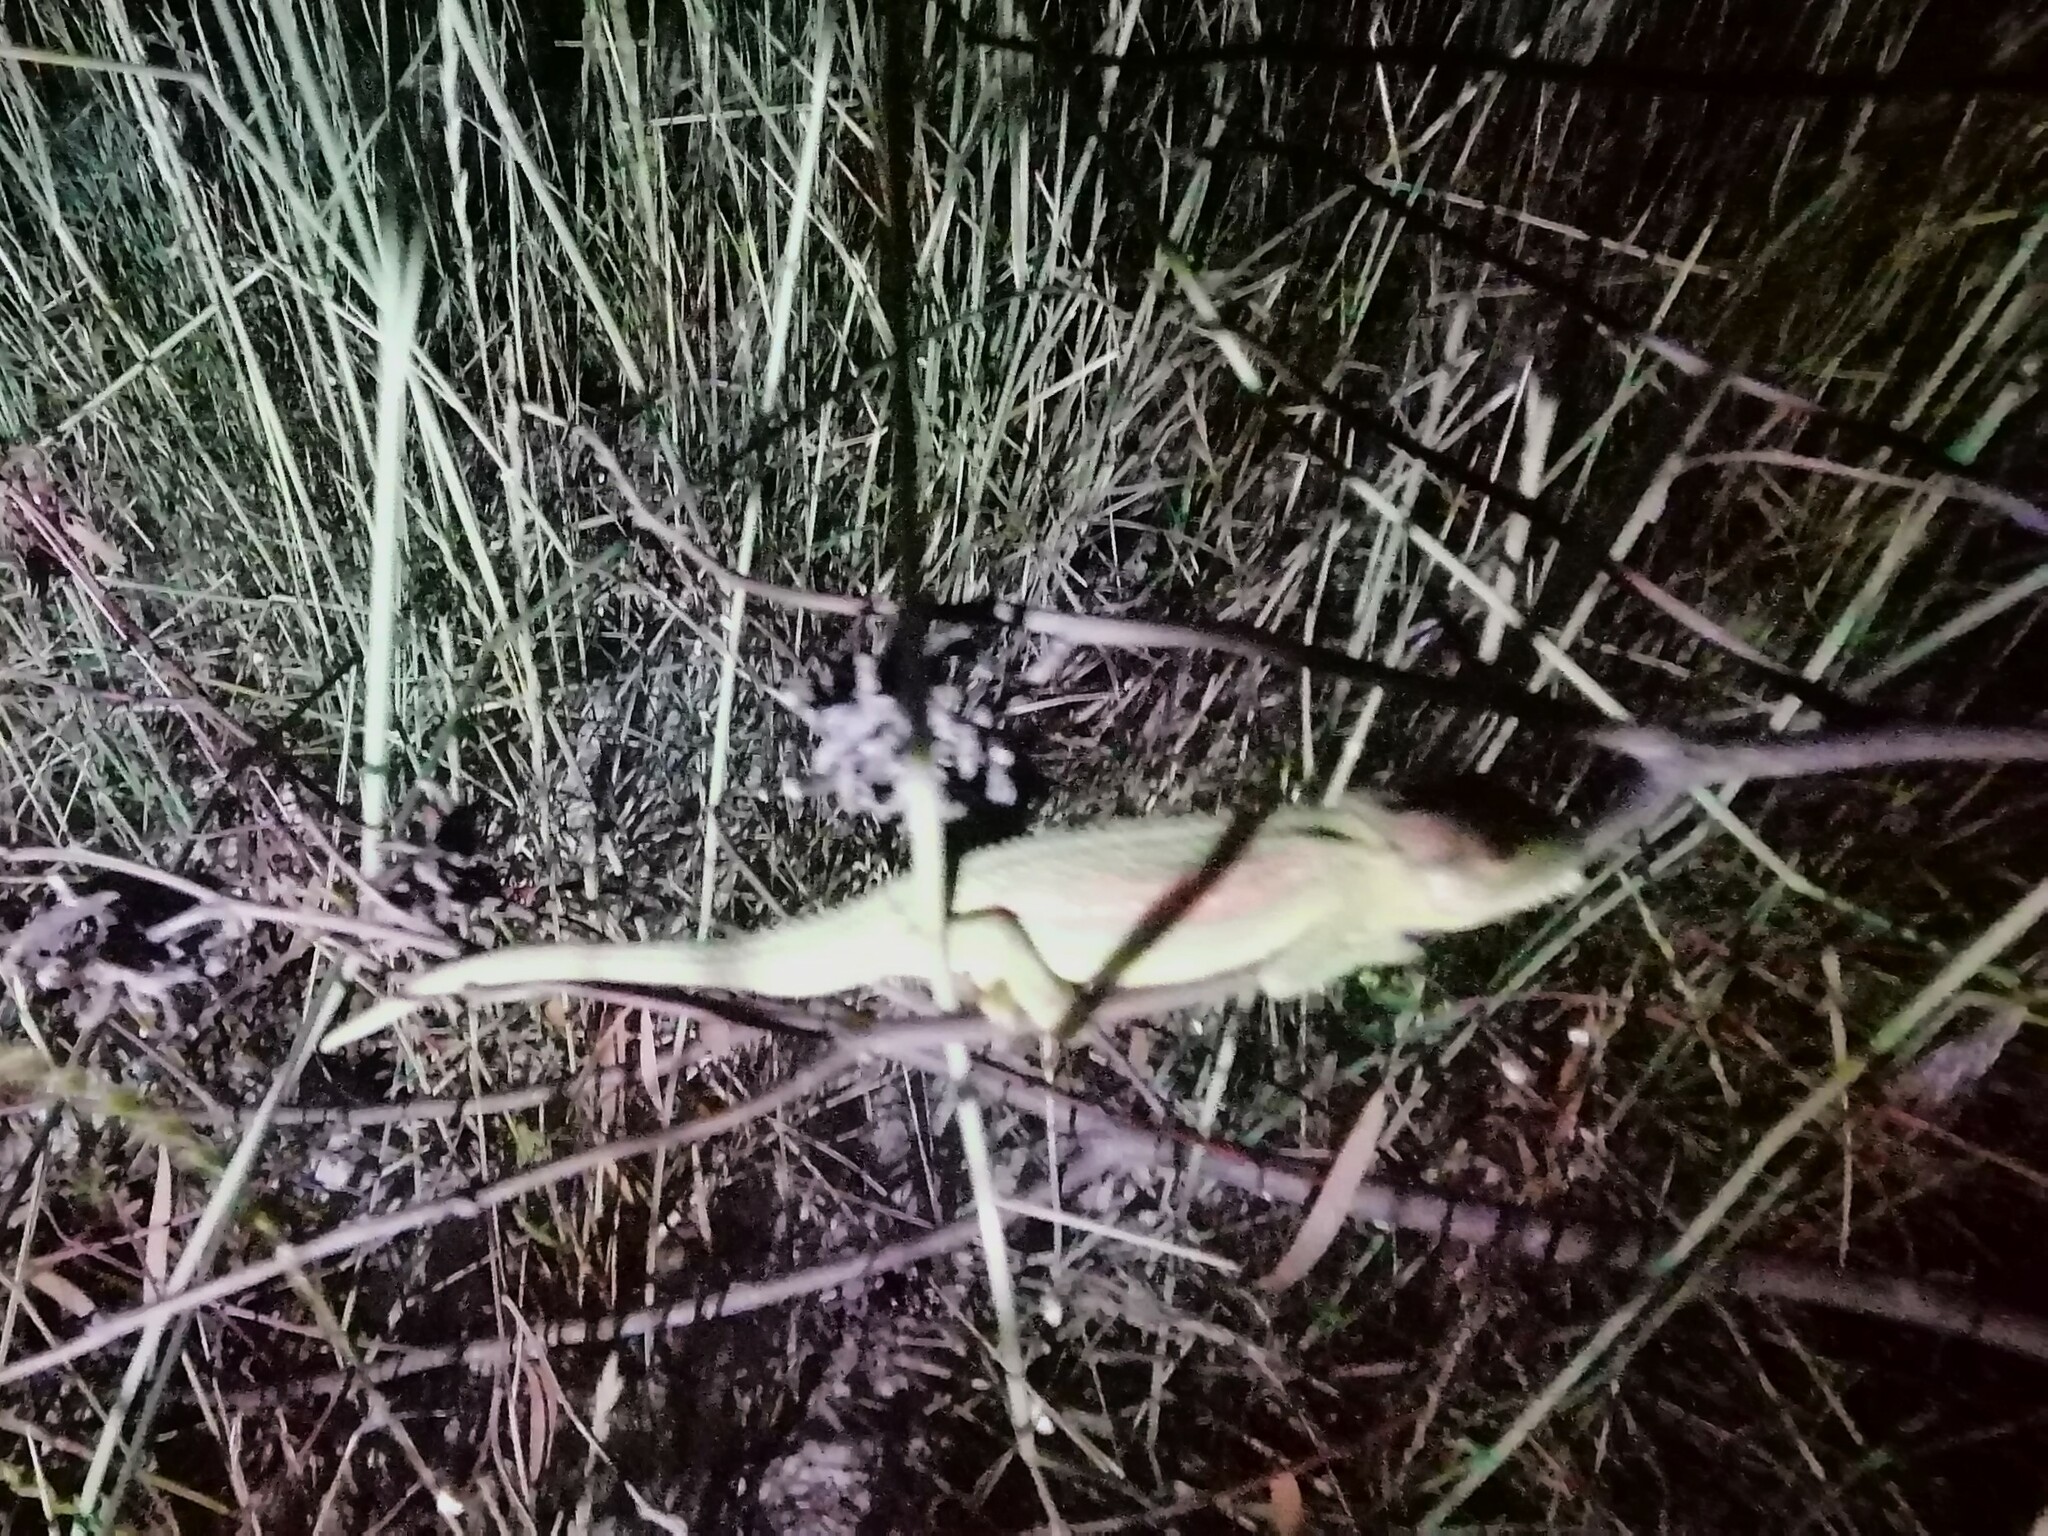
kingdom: Animalia
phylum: Chordata
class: Squamata
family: Chamaeleonidae
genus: Bradypodion
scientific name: Bradypodion pumilum
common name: Cape dwarf chameleon
